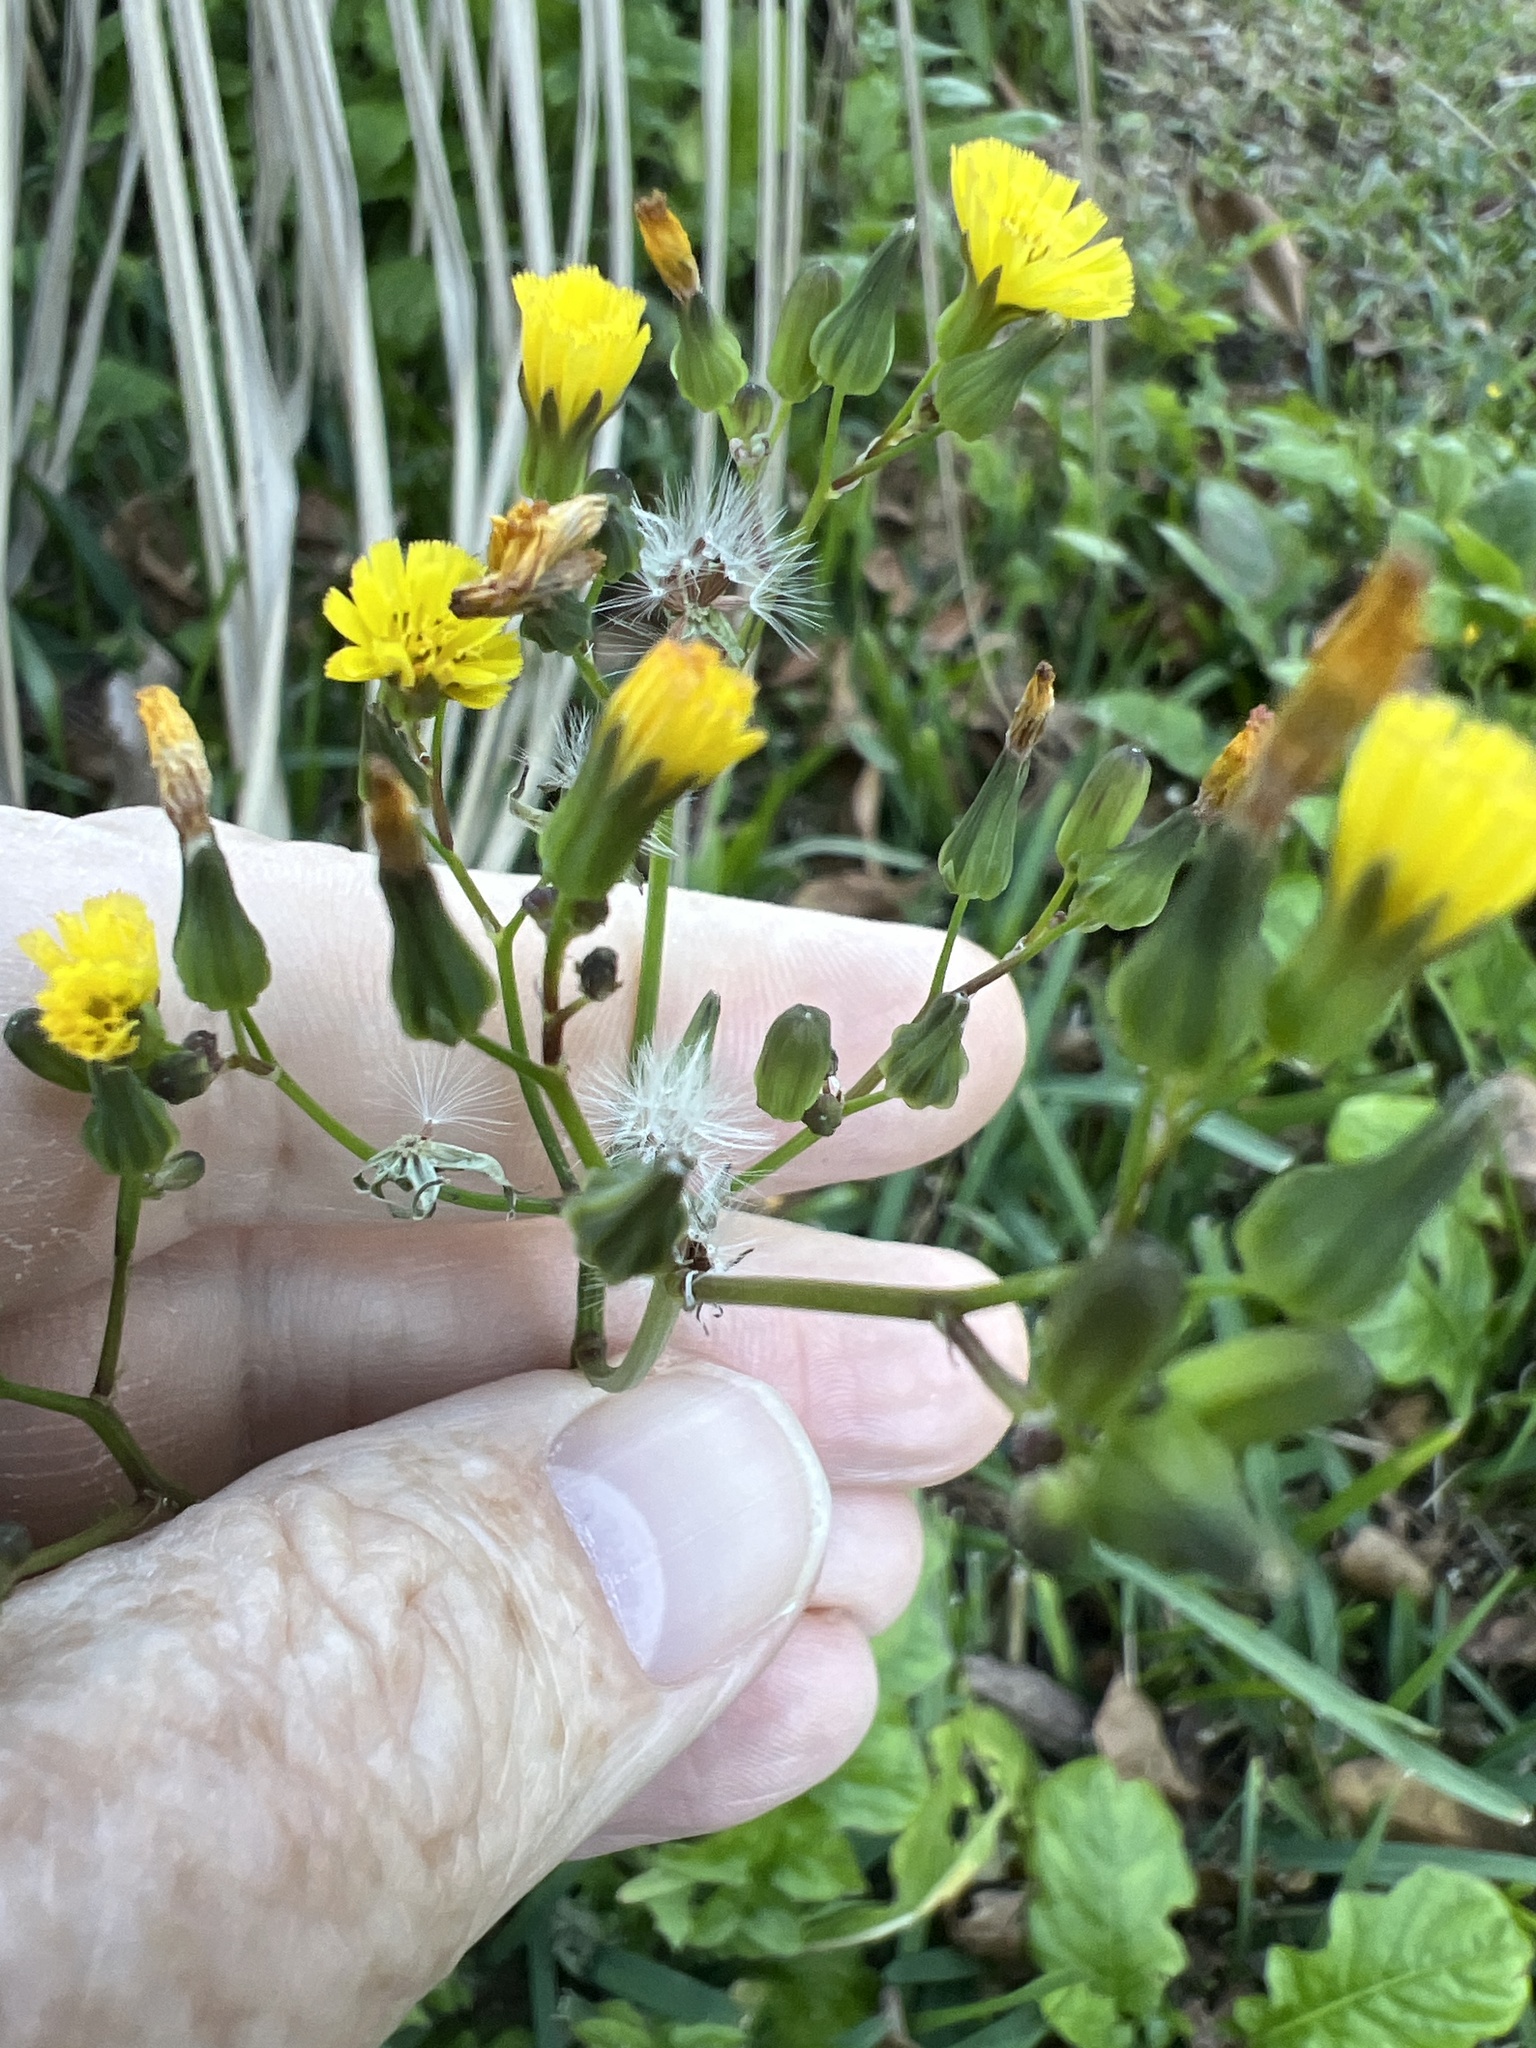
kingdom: Plantae
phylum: Tracheophyta
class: Magnoliopsida
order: Asterales
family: Asteraceae
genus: Youngia
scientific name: Youngia japonica
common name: Oriental false hawksbeard
